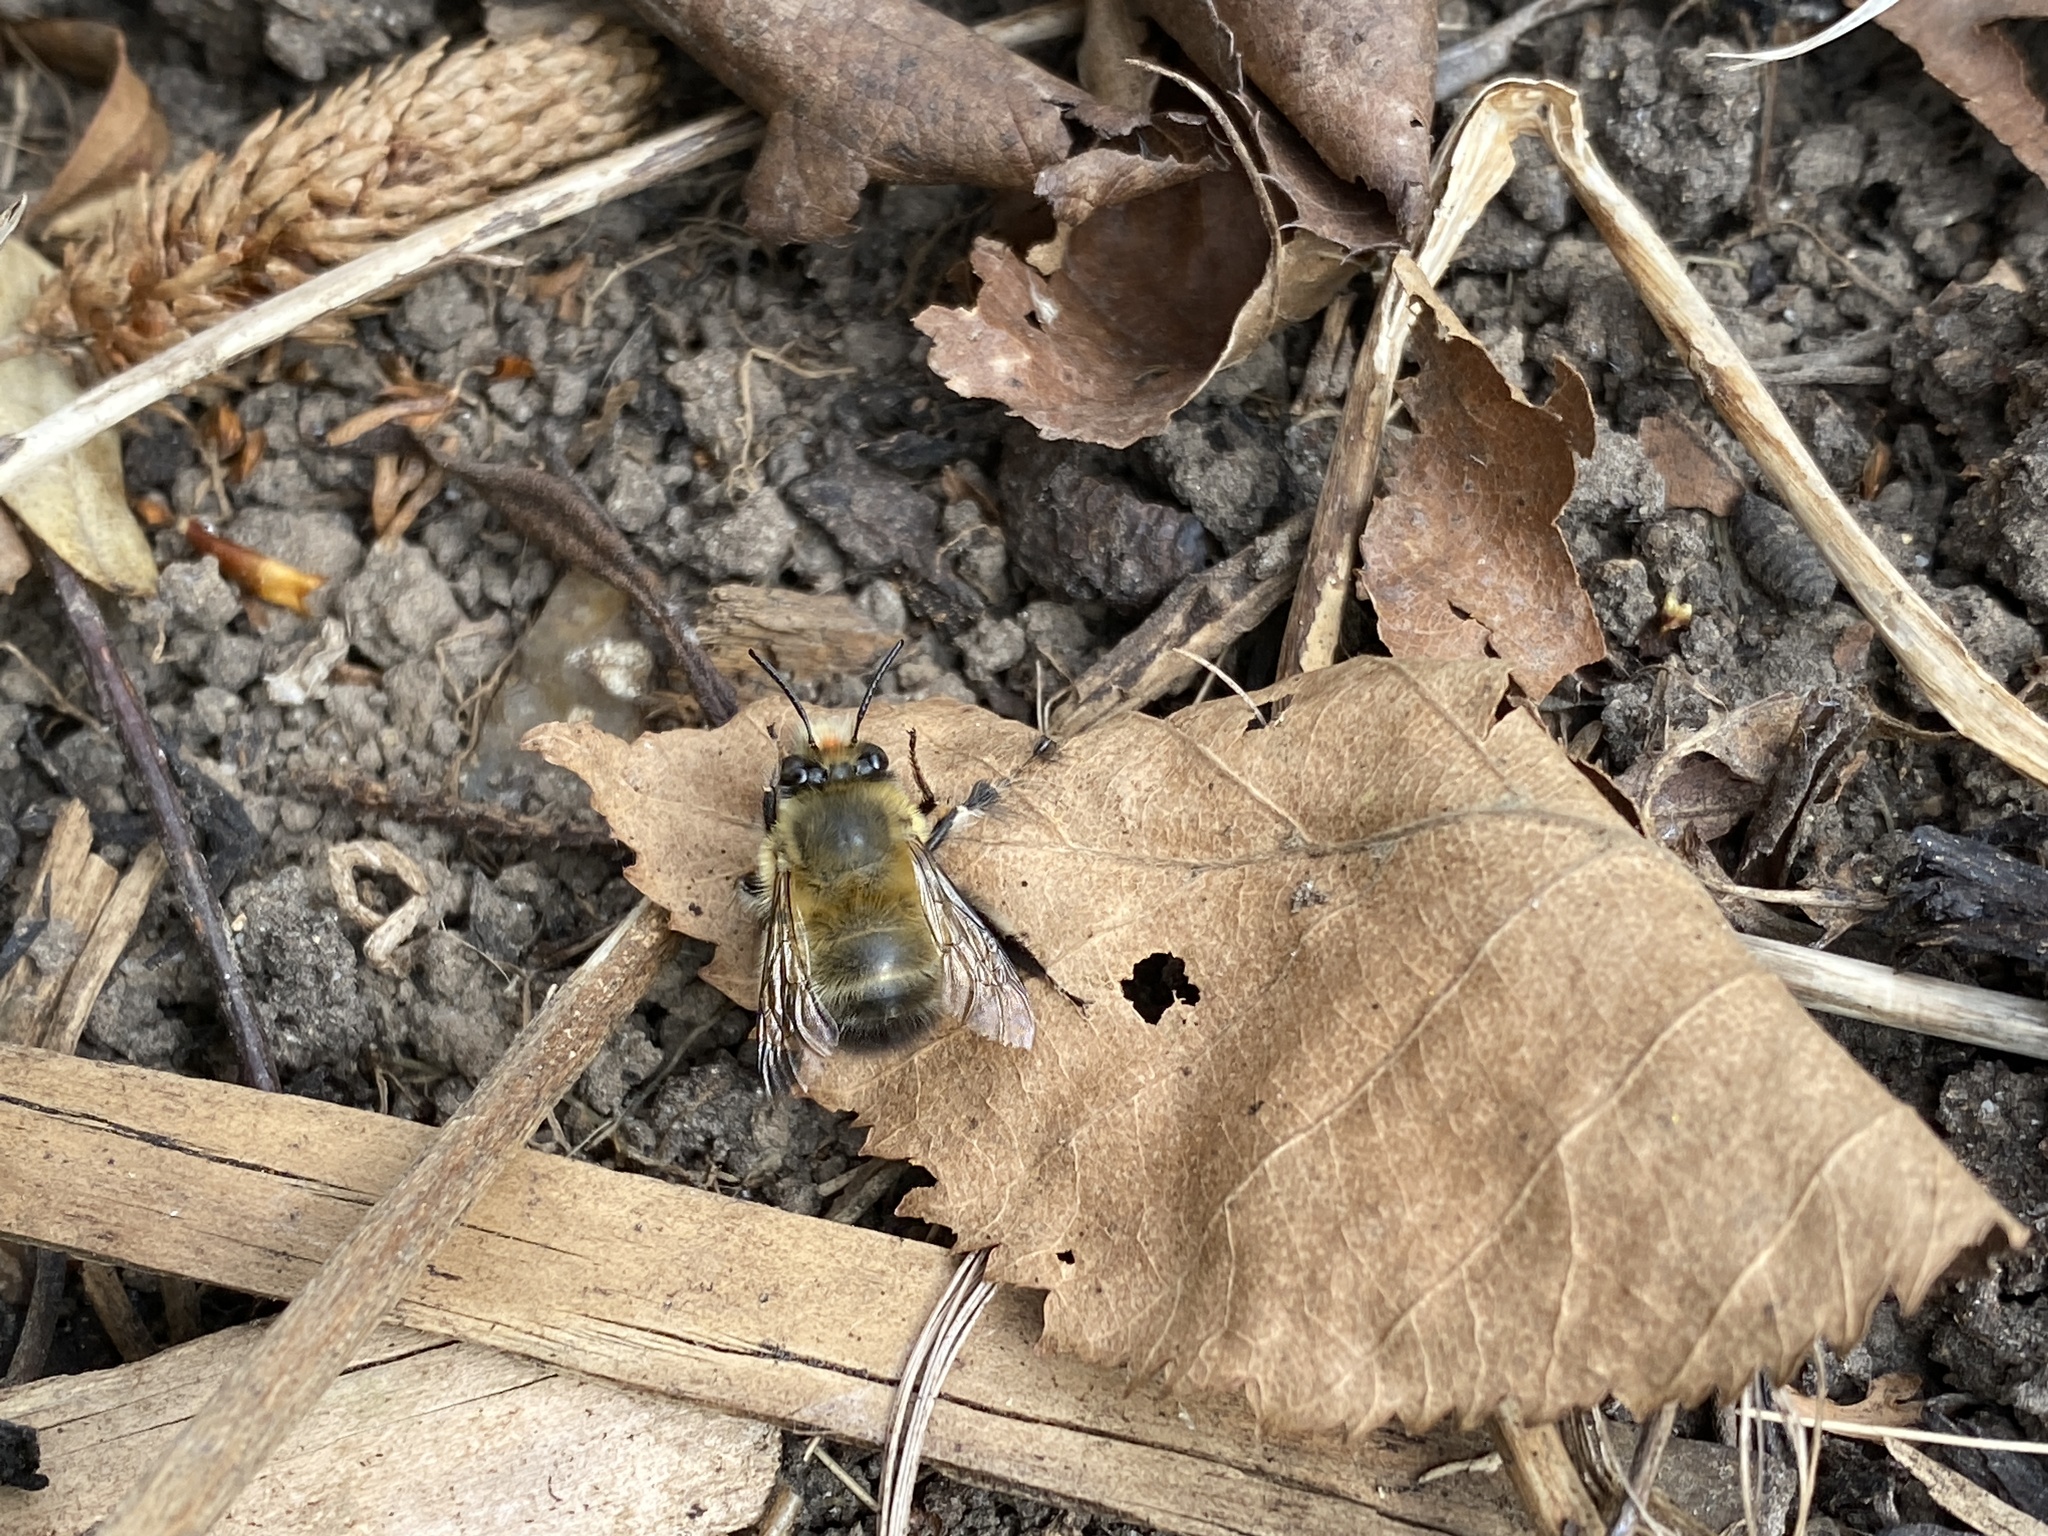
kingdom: Animalia
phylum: Arthropoda
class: Insecta
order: Hymenoptera
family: Apidae
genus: Anthophora
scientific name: Anthophora plumipes
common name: Hairy-footed flower bee
